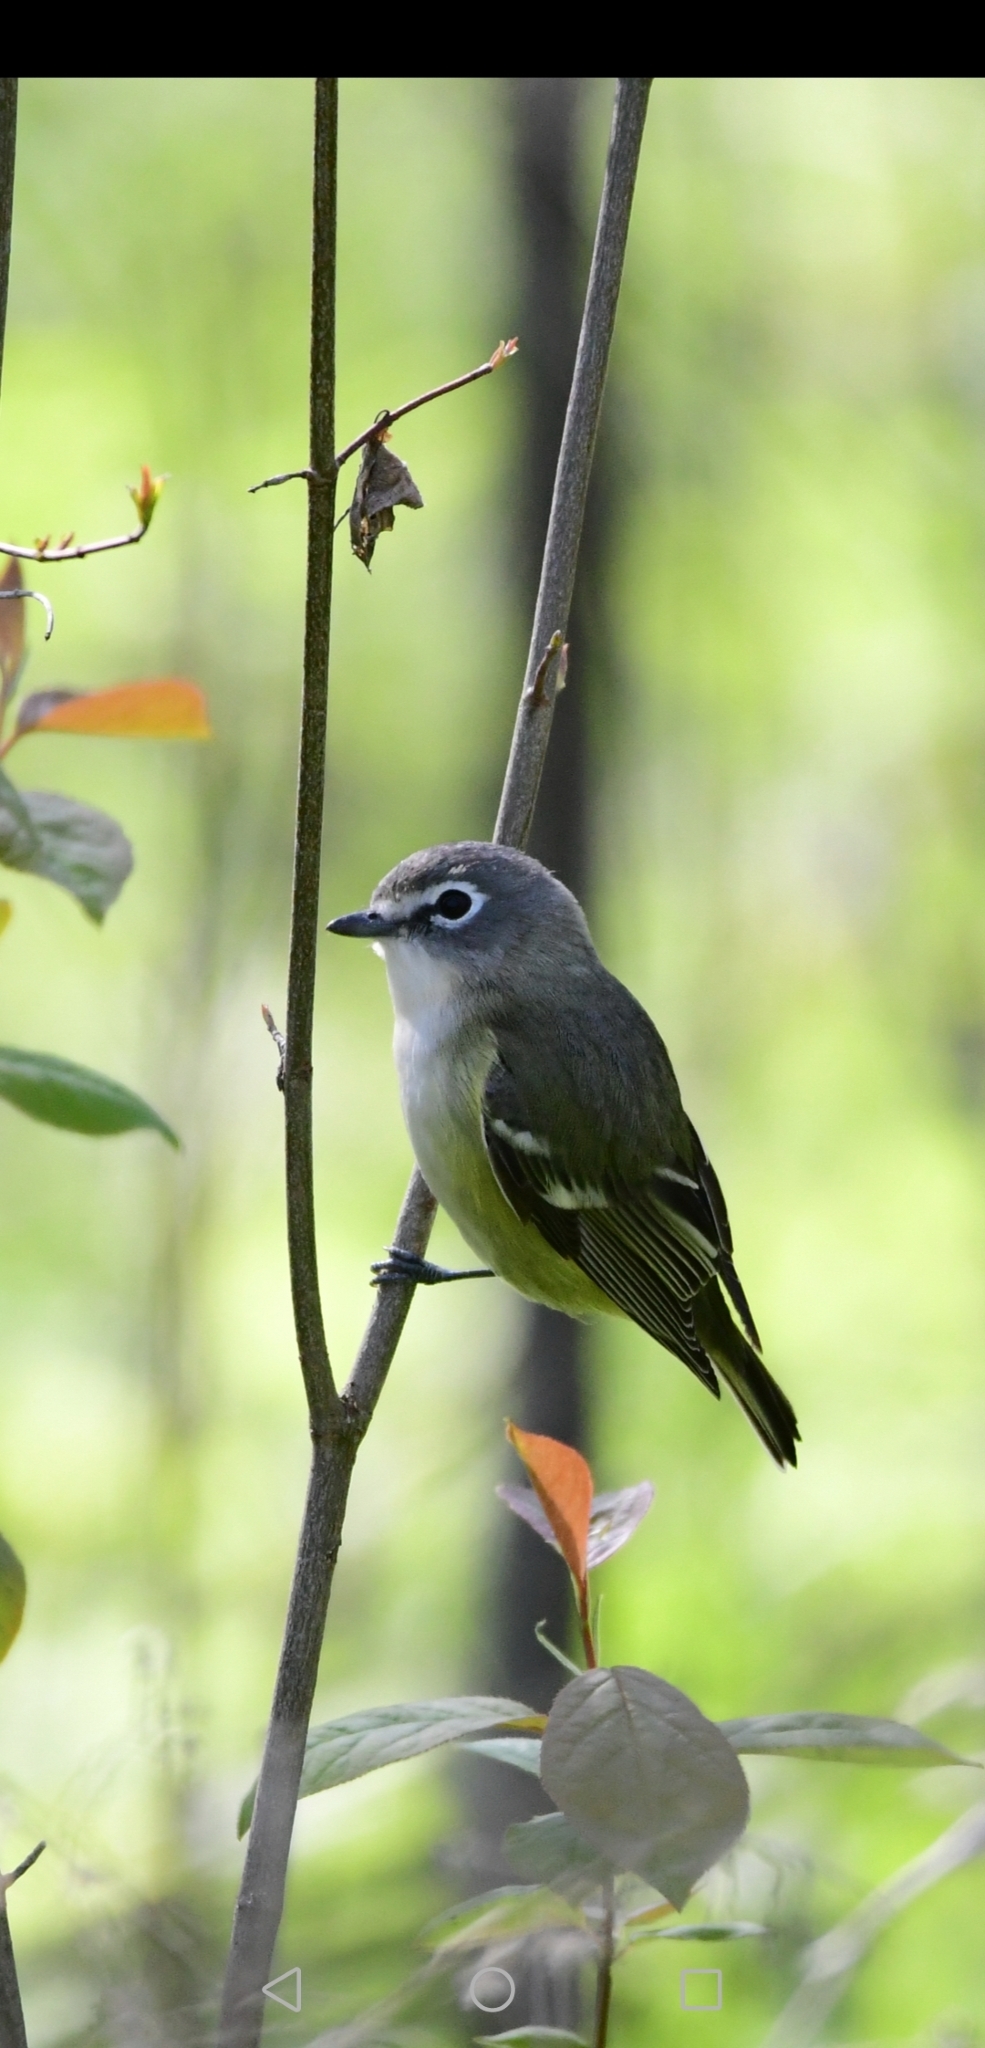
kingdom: Animalia
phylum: Chordata
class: Aves
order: Passeriformes
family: Vireonidae
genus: Vireo
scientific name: Vireo solitarius
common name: Blue-headed vireo
